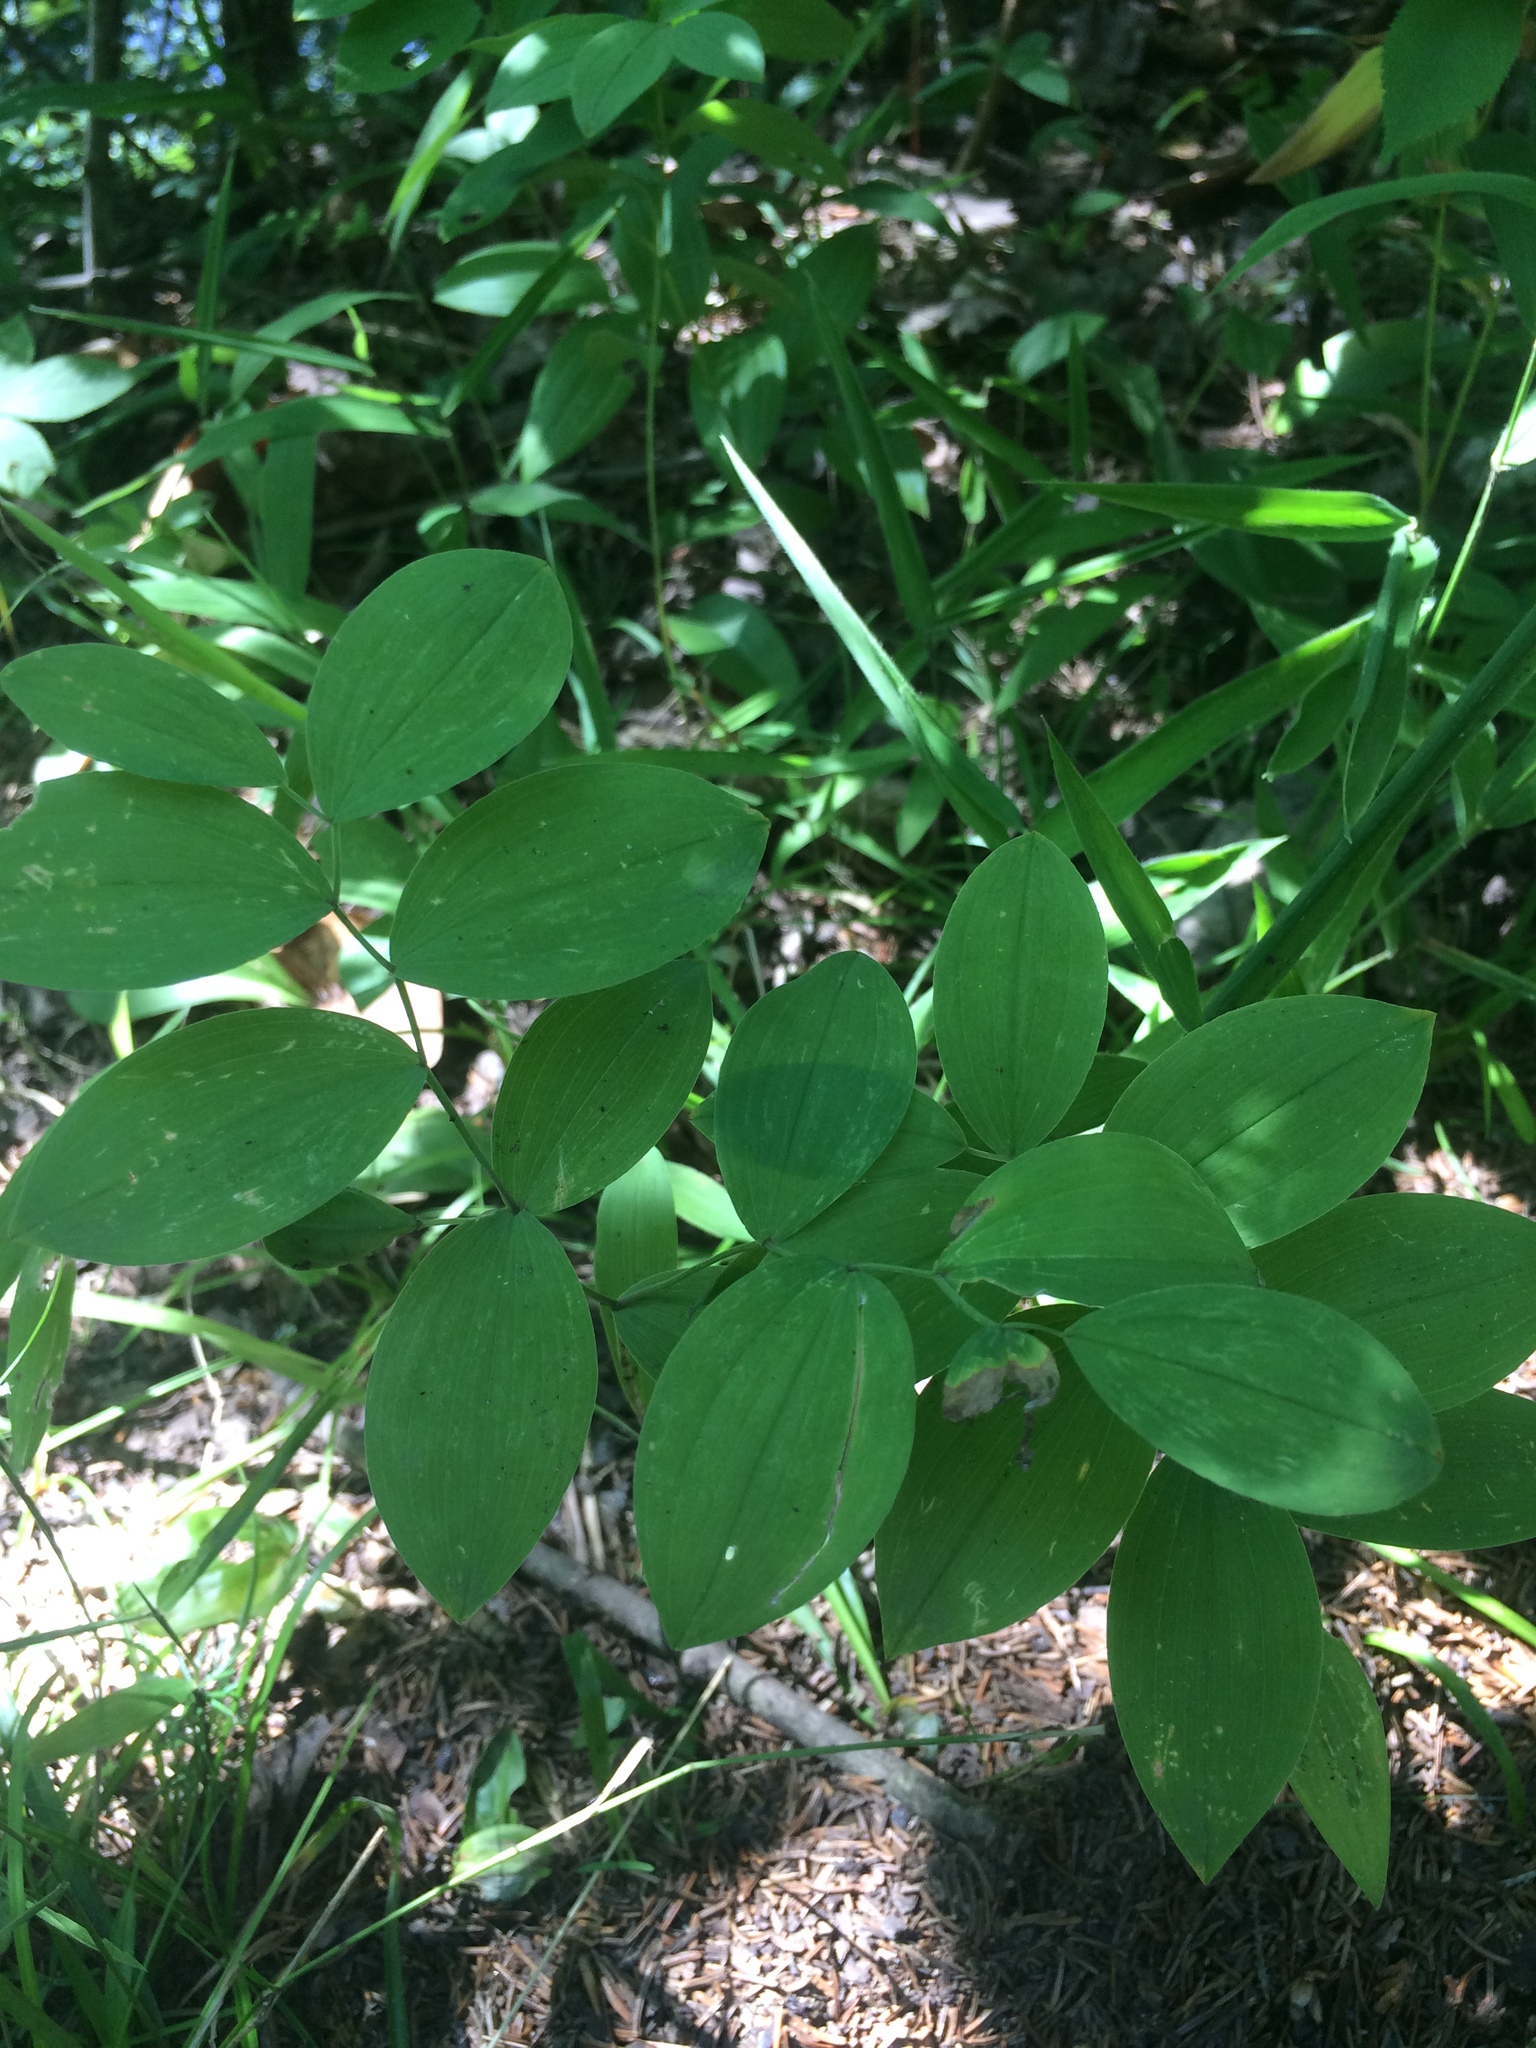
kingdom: Plantae
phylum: Tracheophyta
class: Liliopsida
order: Liliales
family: Colchicaceae
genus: Uvularia
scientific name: Uvularia sessilifolia
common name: Straw-lily
